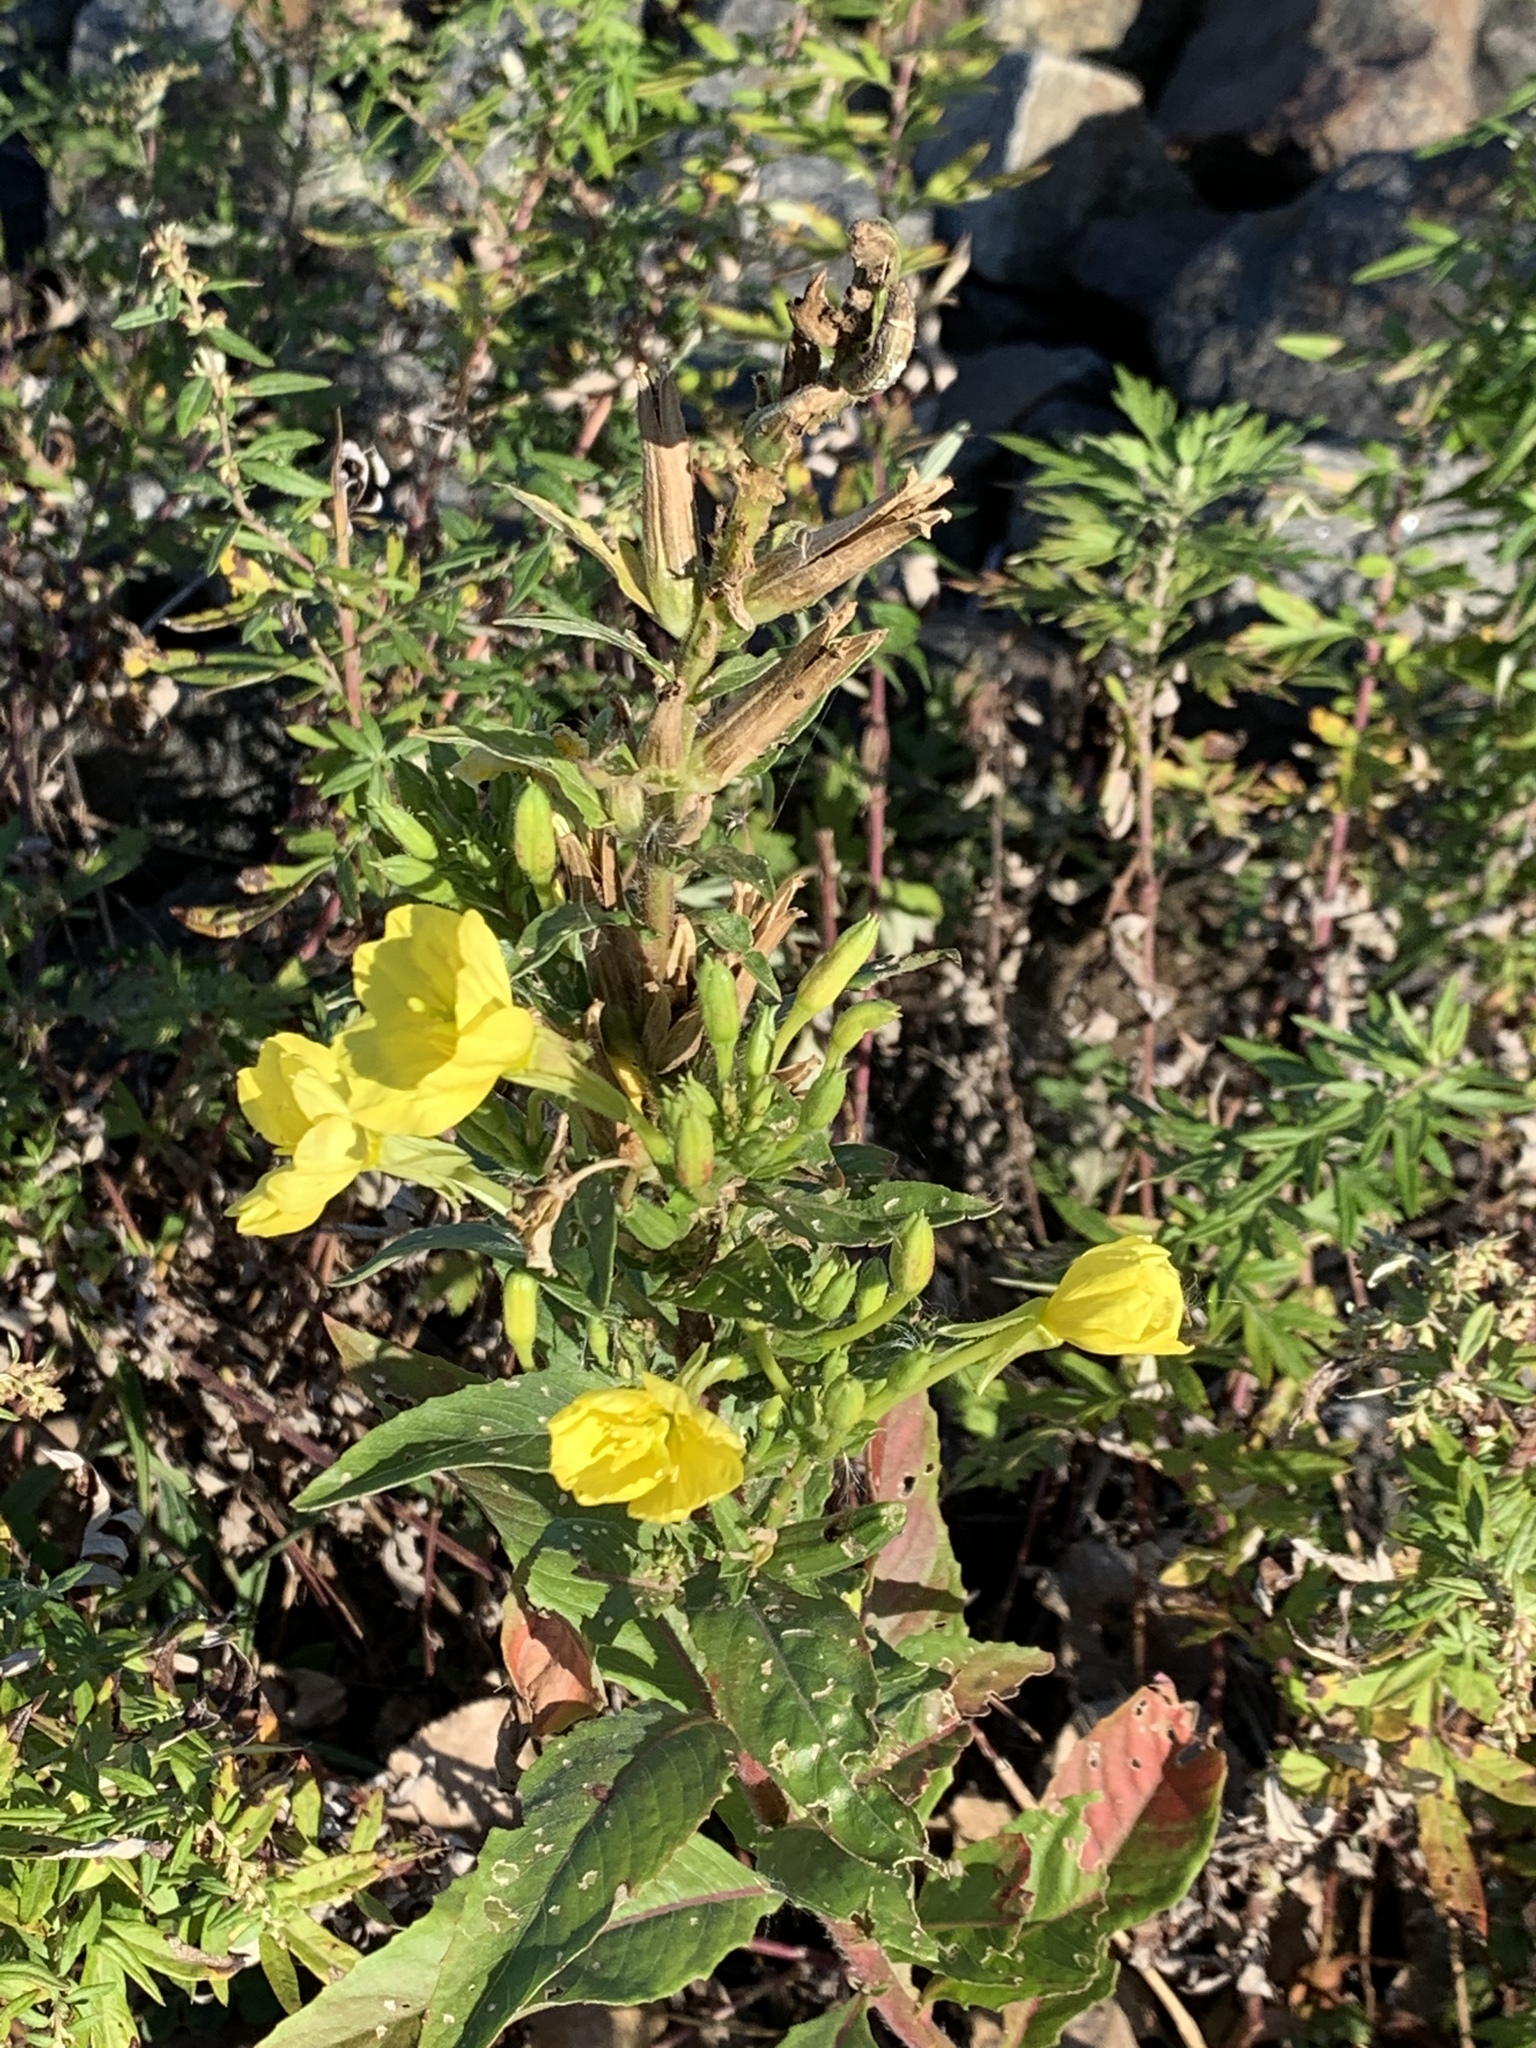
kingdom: Plantae
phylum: Tracheophyta
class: Magnoliopsida
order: Myrtales
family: Onagraceae
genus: Oenothera
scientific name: Oenothera biennis
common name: Common evening-primrose
